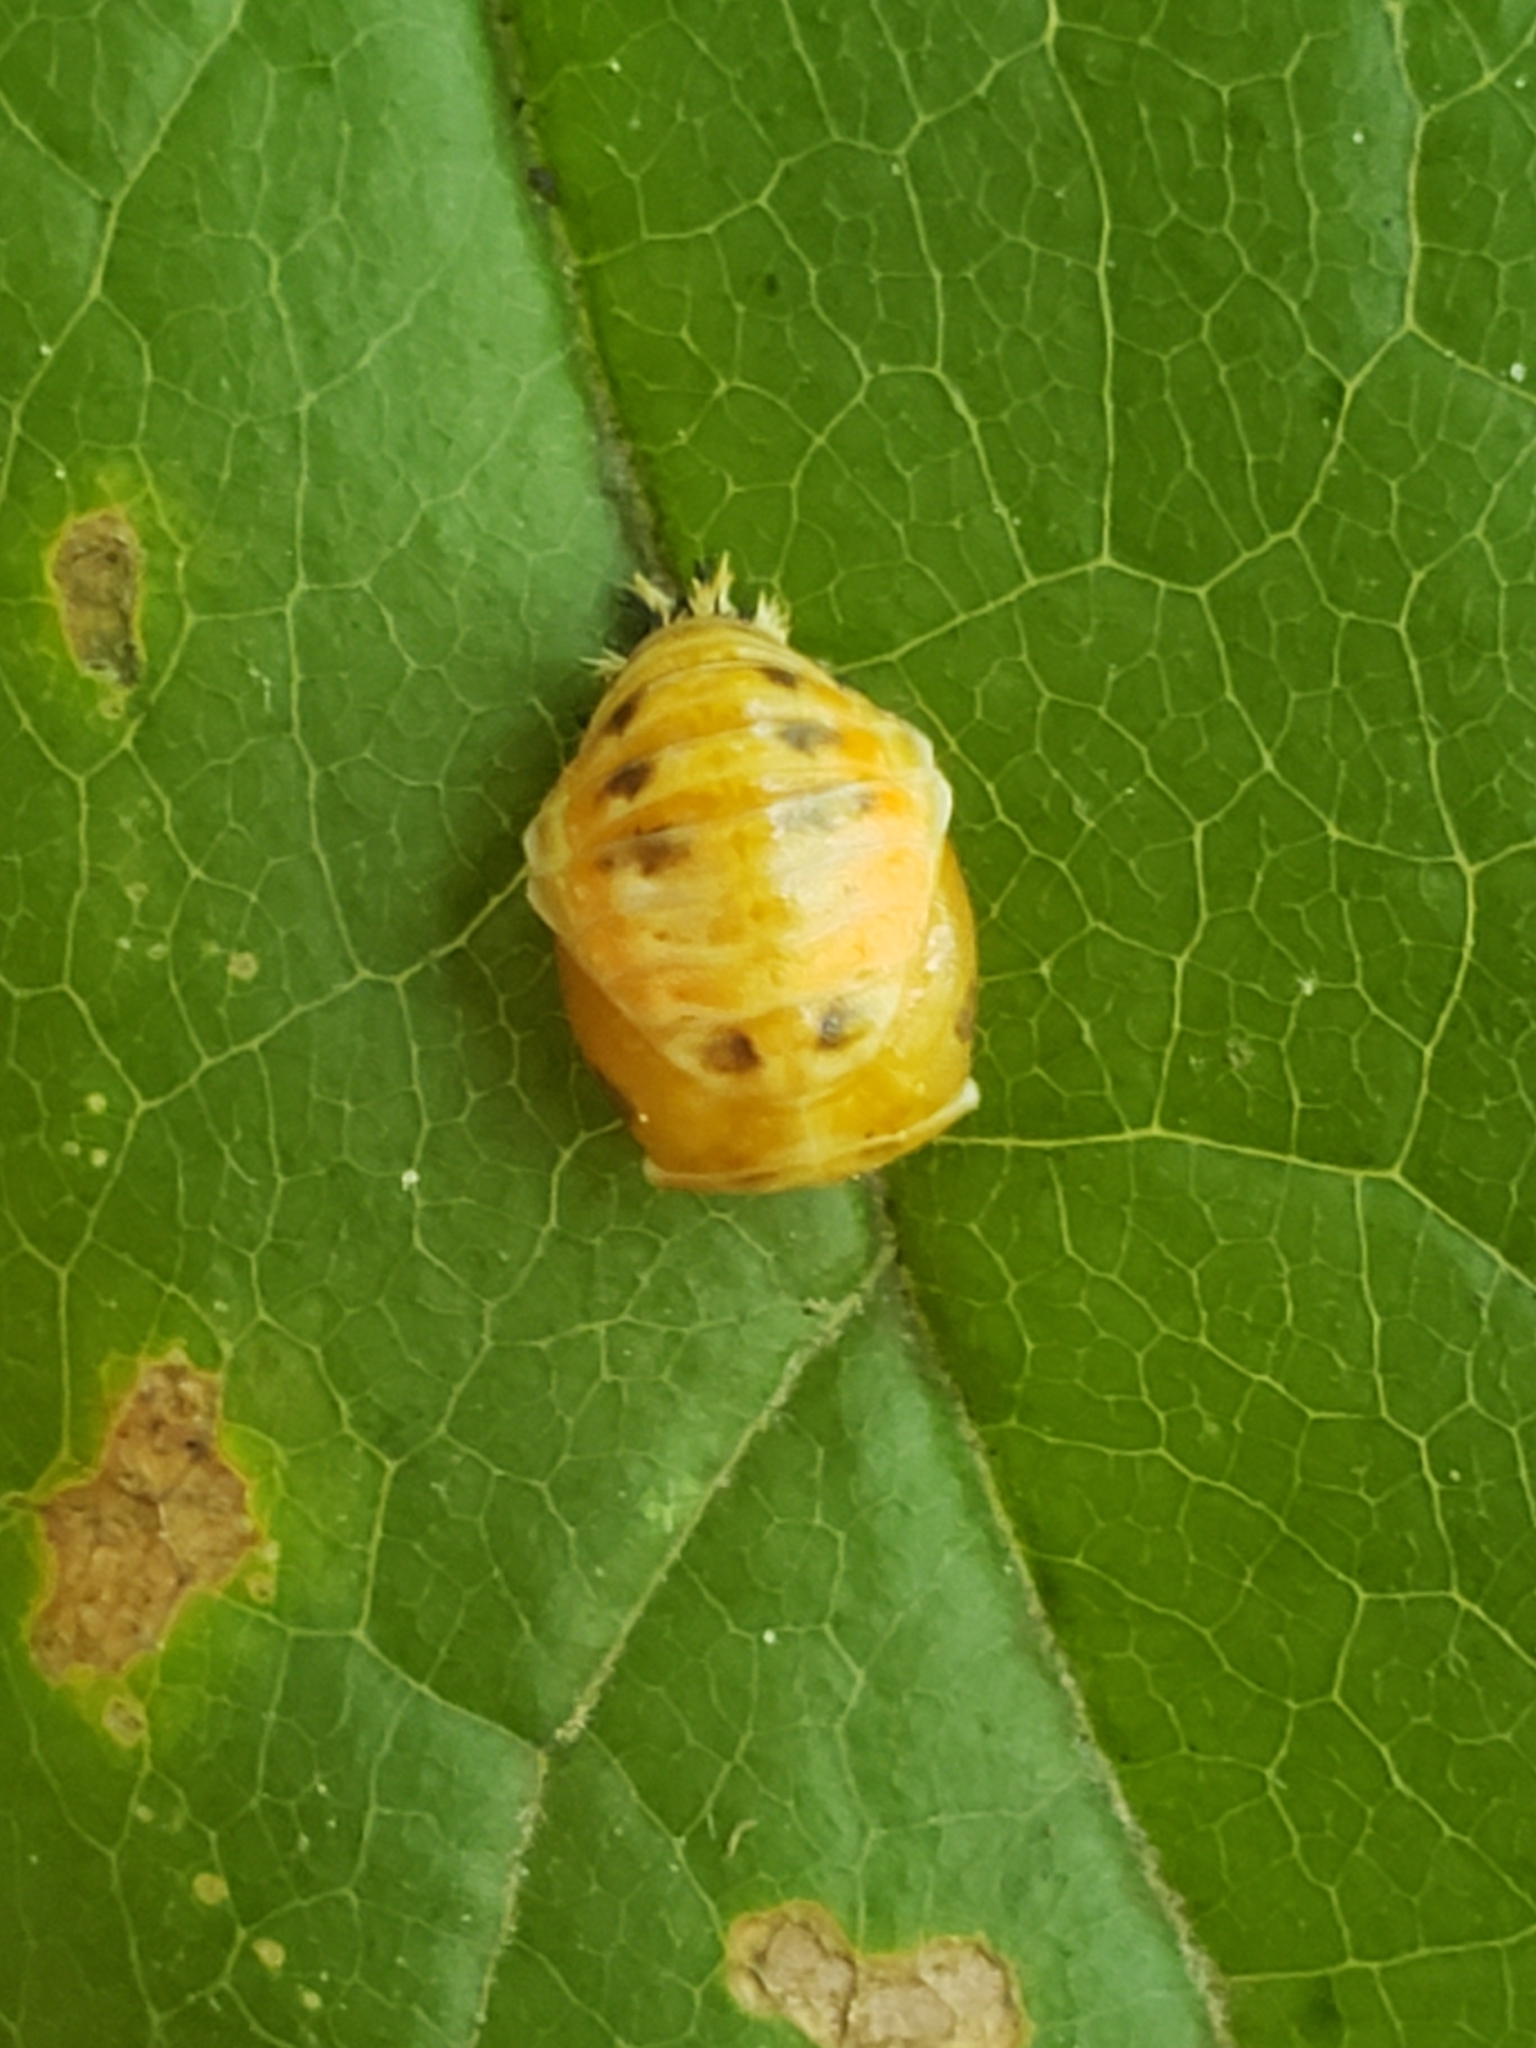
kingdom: Animalia
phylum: Arthropoda
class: Insecta
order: Coleoptera
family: Coccinellidae
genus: Harmonia
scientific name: Harmonia axyridis
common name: Harlequin ladybird
